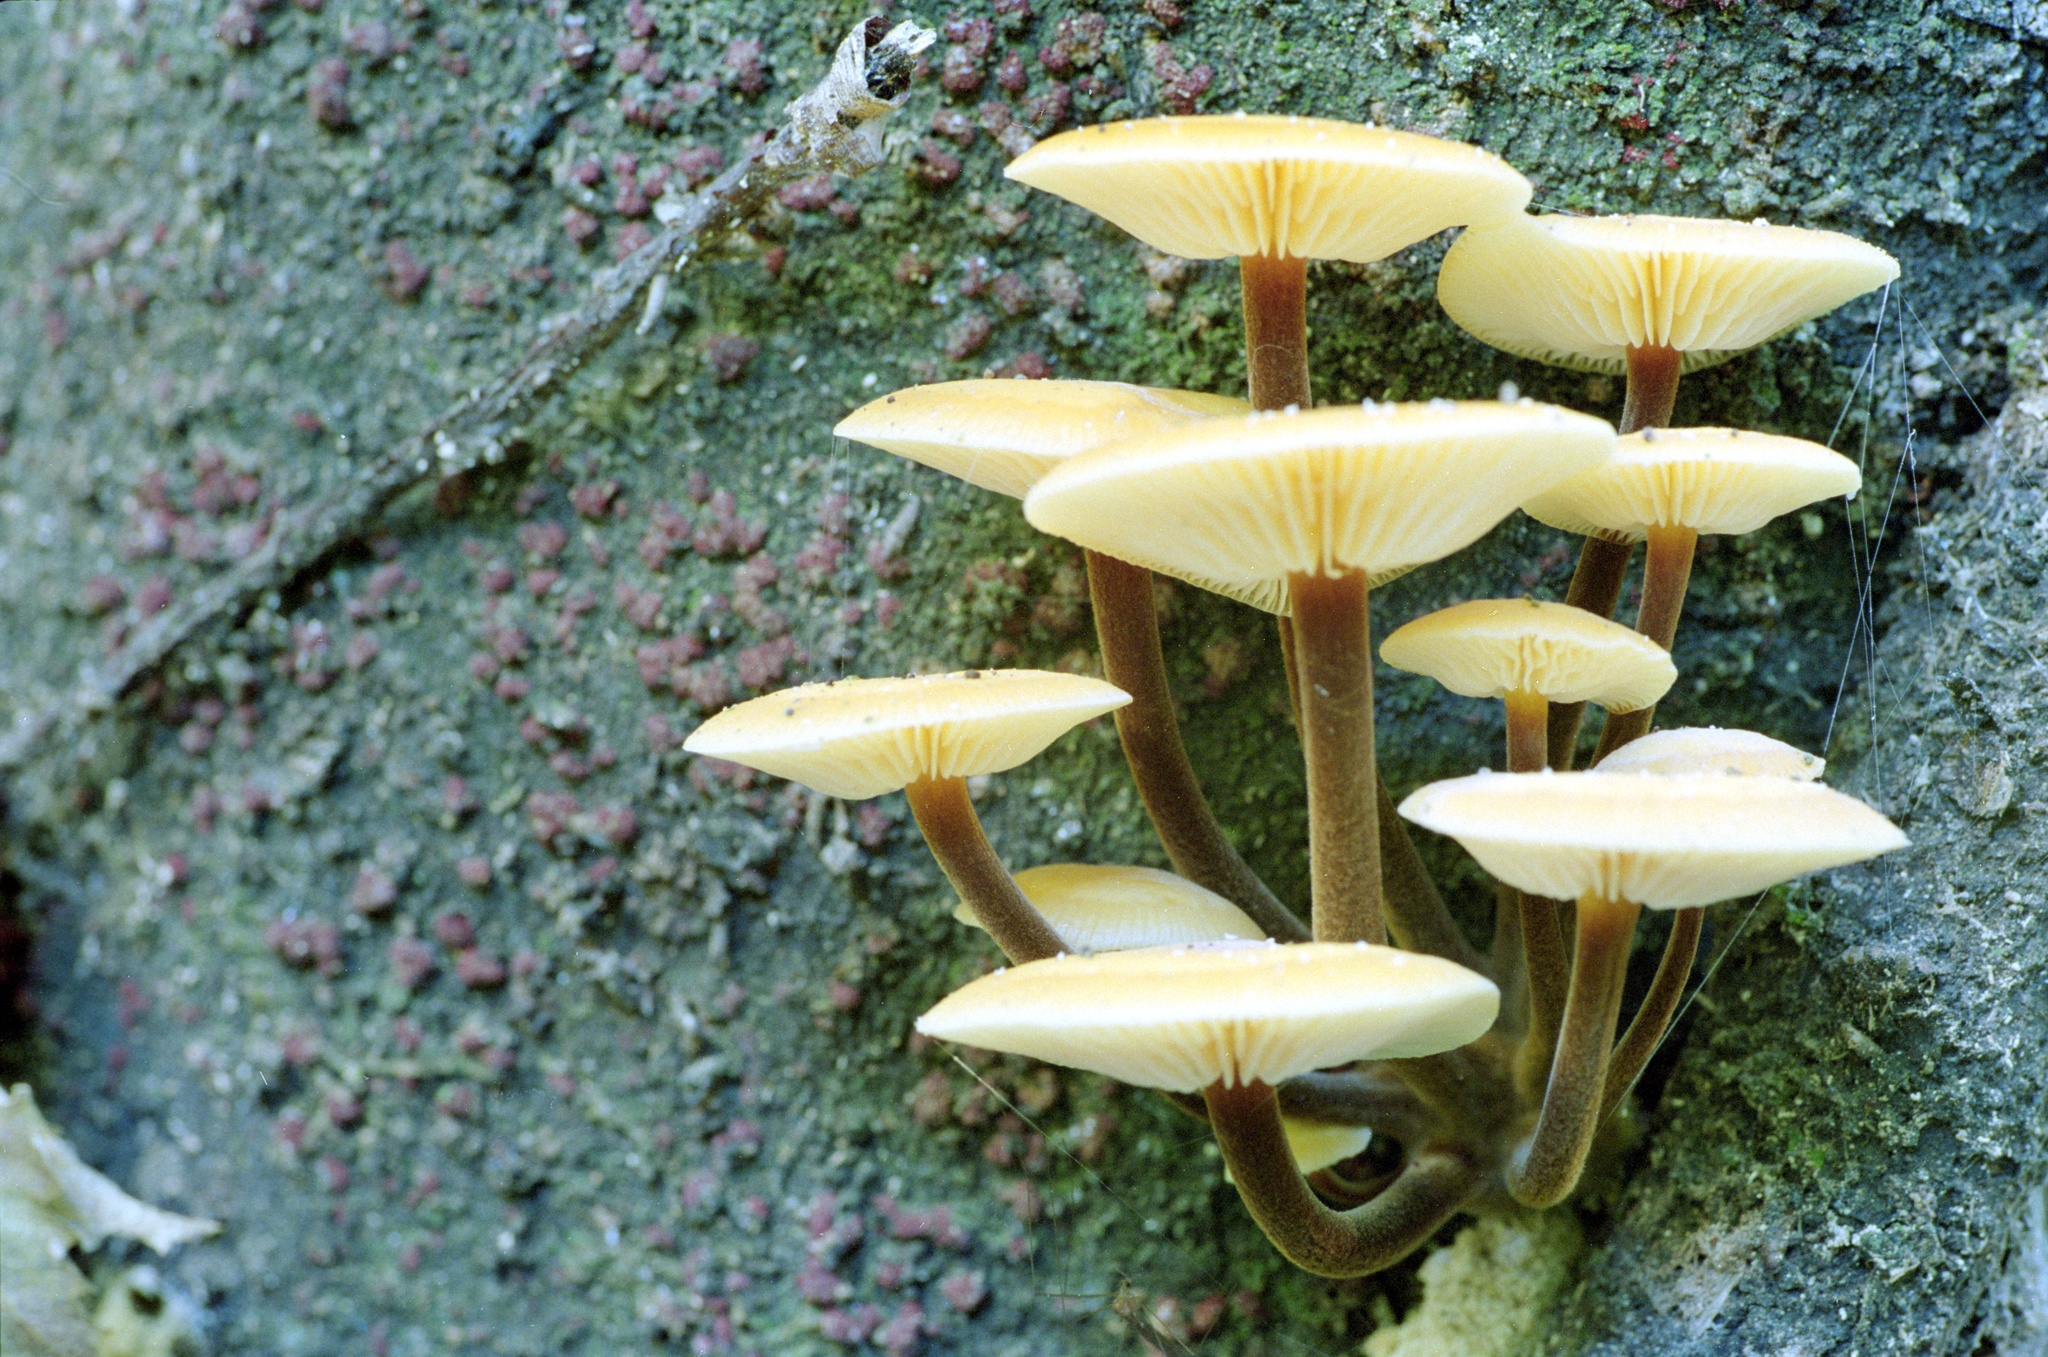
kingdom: Fungi
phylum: Basidiomycota
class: Agaricomycetes
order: Agaricales
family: Physalacriaceae
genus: Flammulina
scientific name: Flammulina velutipes
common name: Velvet shank
